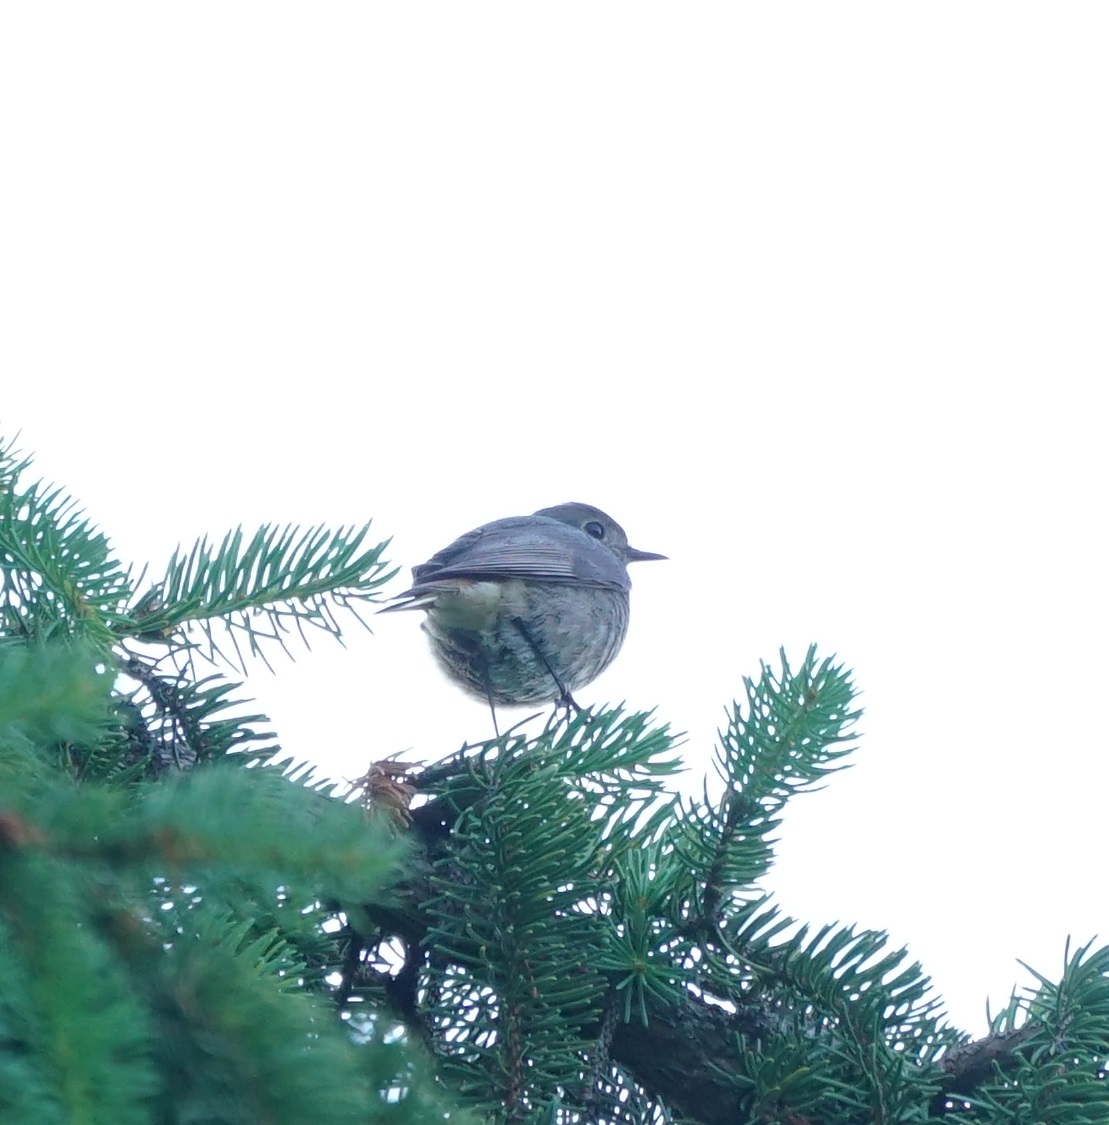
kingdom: Animalia
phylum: Chordata
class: Aves
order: Passeriformes
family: Muscicapidae
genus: Phoenicurus
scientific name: Phoenicurus ochruros
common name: Black redstart
